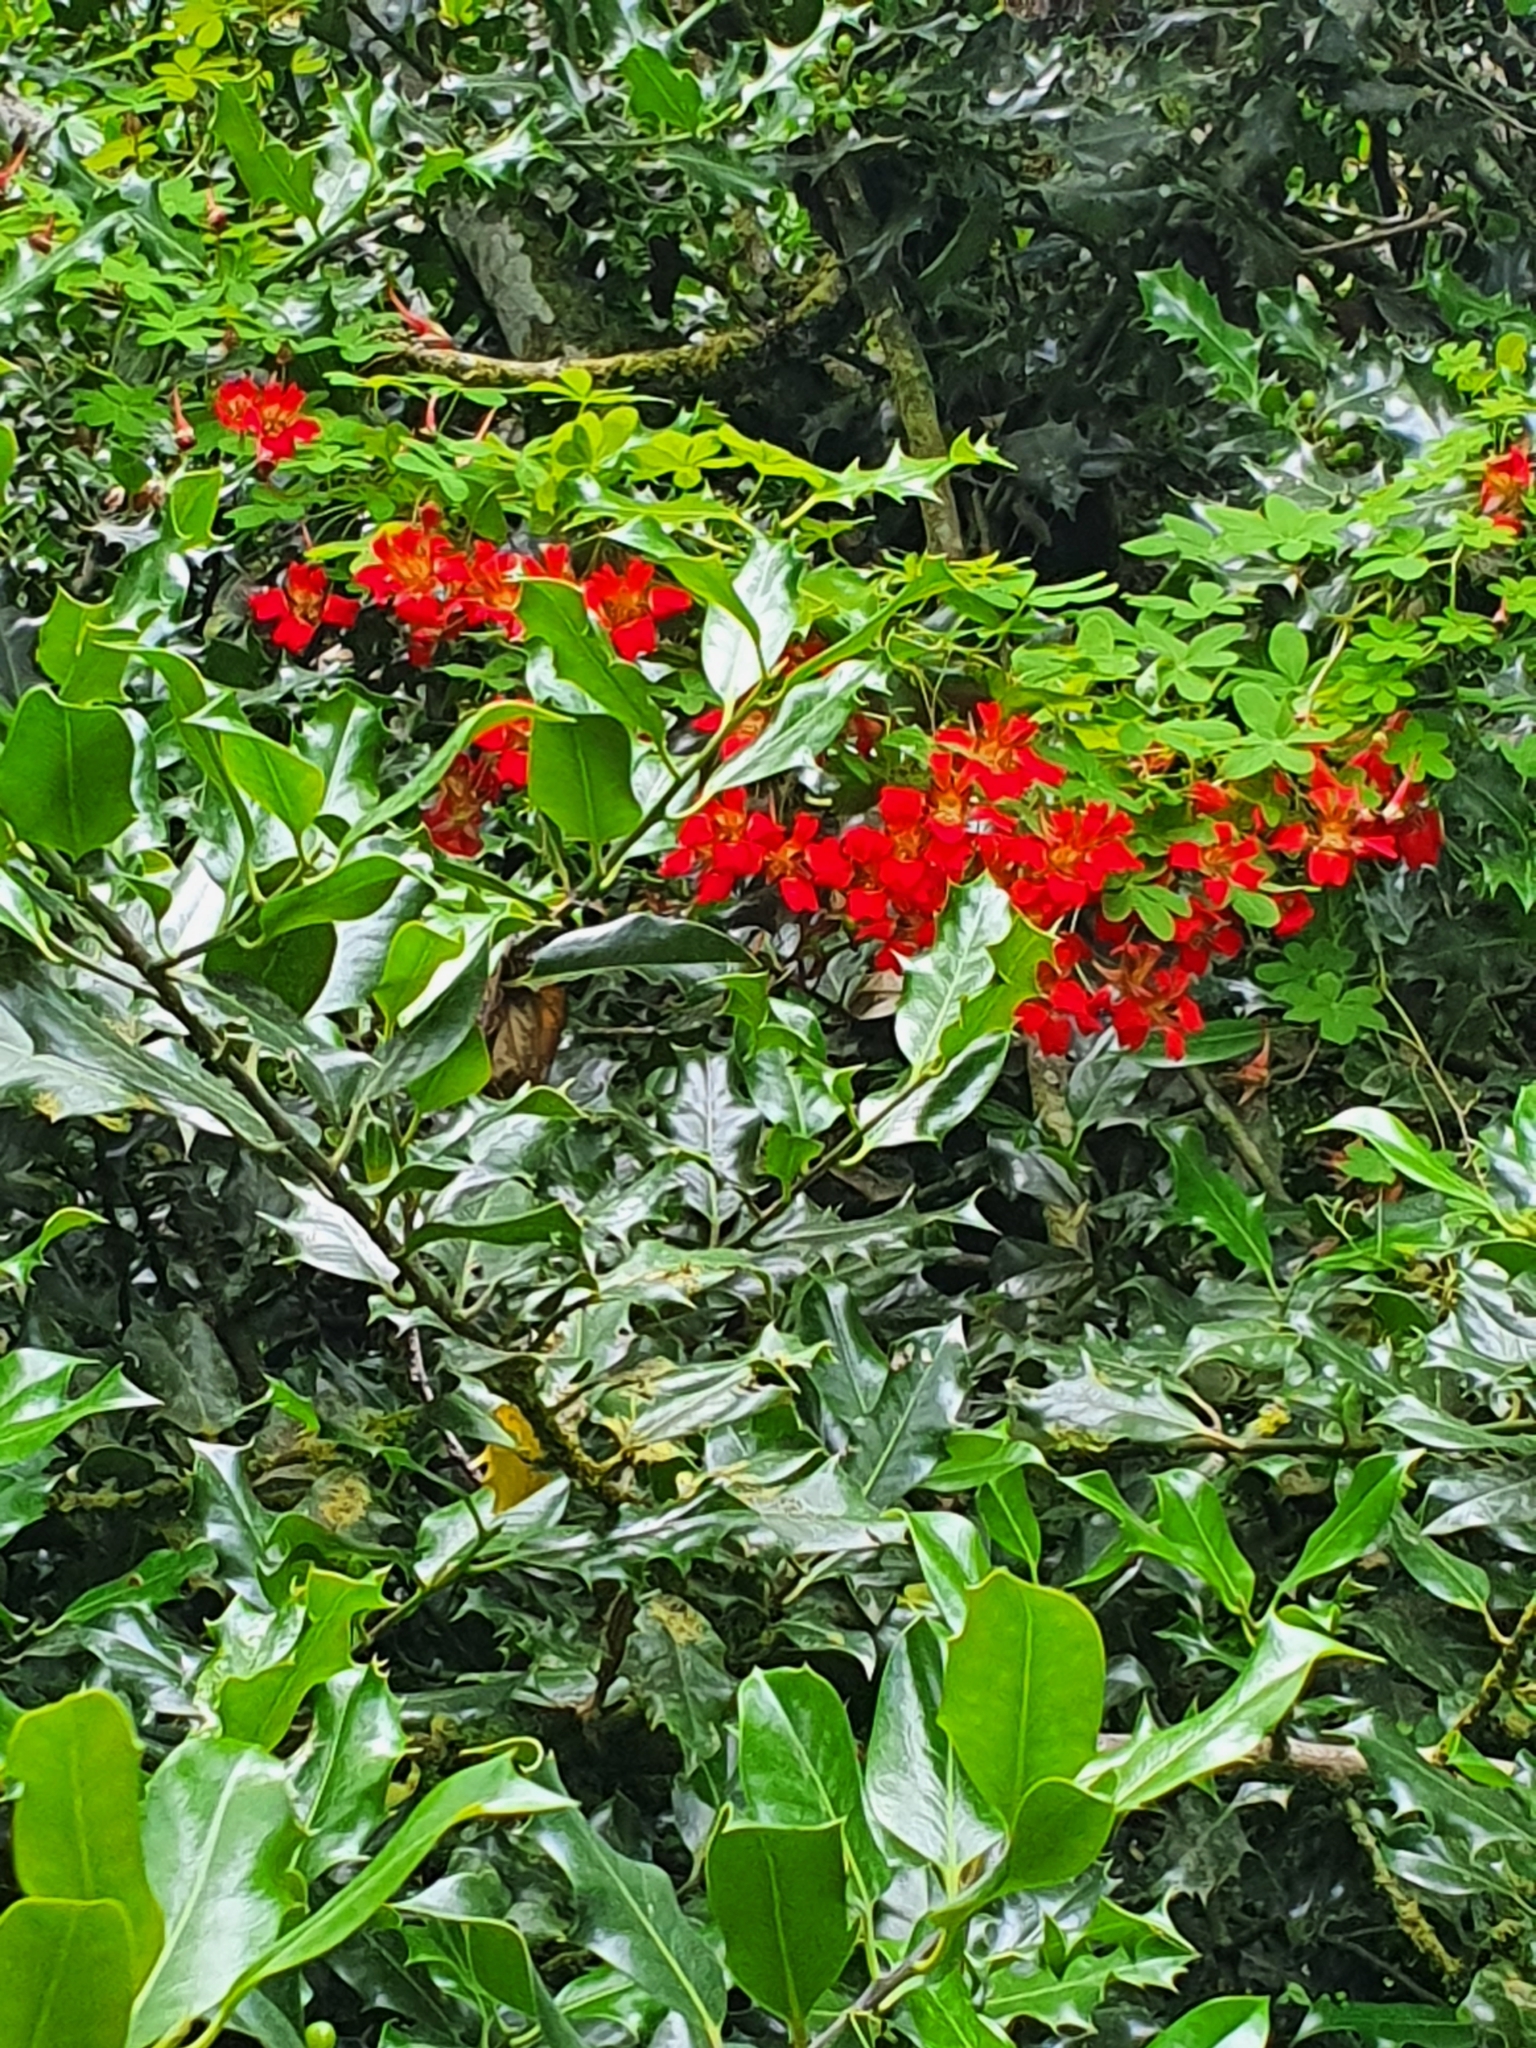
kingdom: Plantae
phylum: Tracheophyta
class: Magnoliopsida
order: Brassicales
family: Tropaeolaceae
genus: Tropaeolum
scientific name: Tropaeolum speciosum
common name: Flame nasturtium
